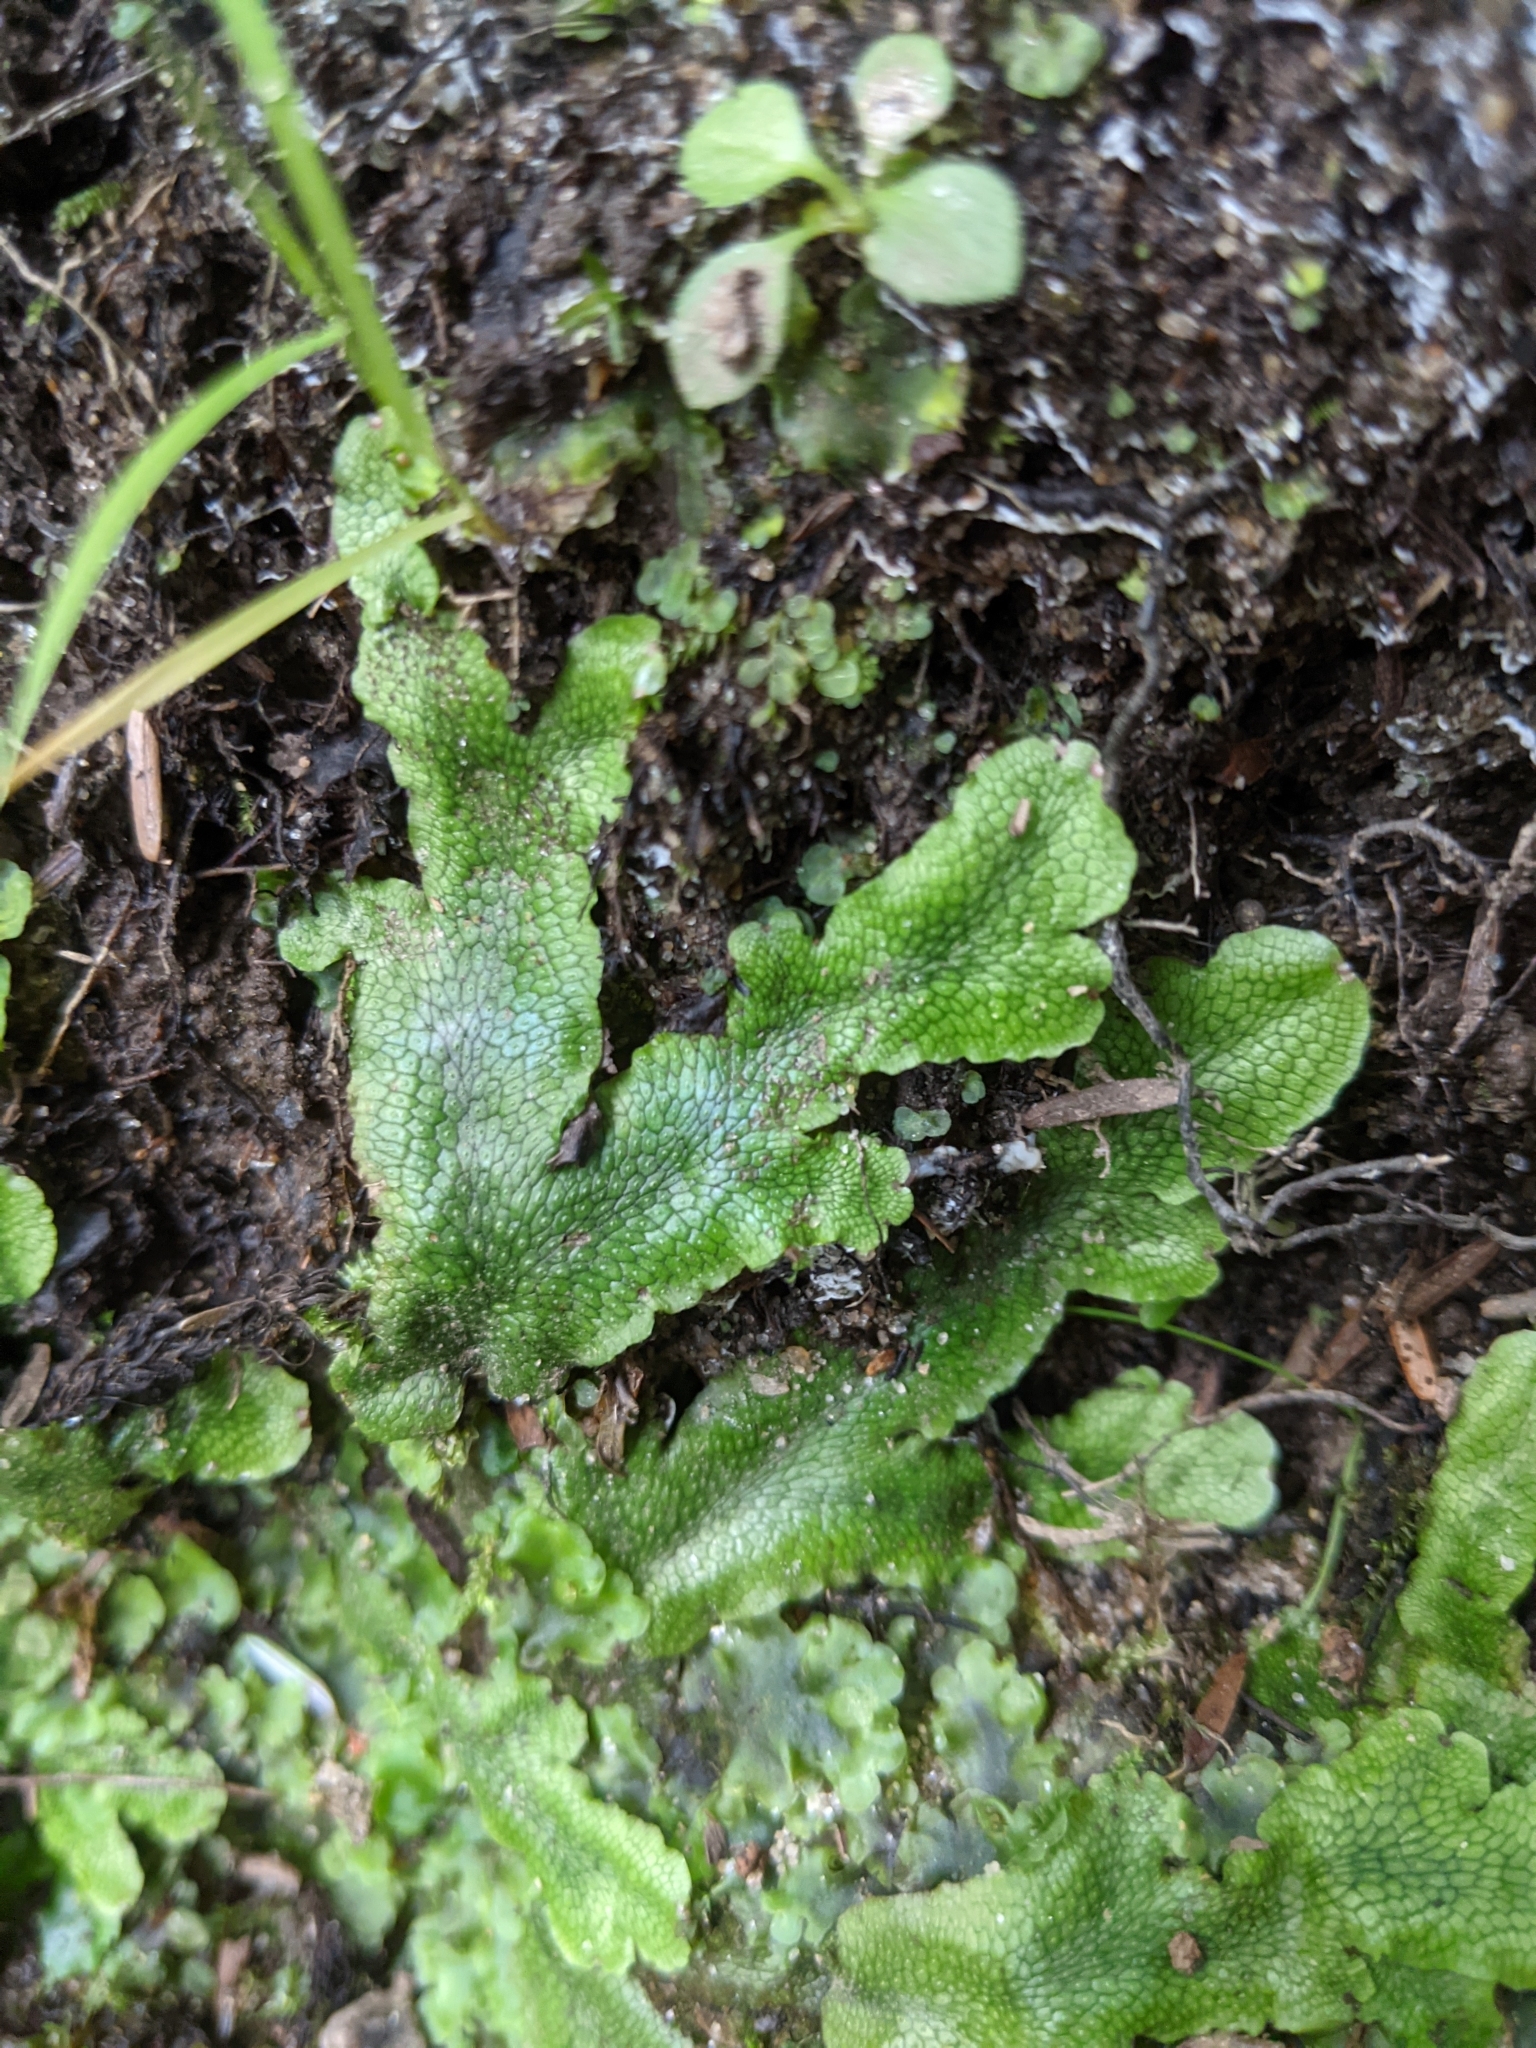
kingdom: Plantae
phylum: Marchantiophyta
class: Marchantiopsida
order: Marchantiales
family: Conocephalaceae
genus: Conocephalum
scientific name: Conocephalum salebrosum
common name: Cat-tongue liverwort
